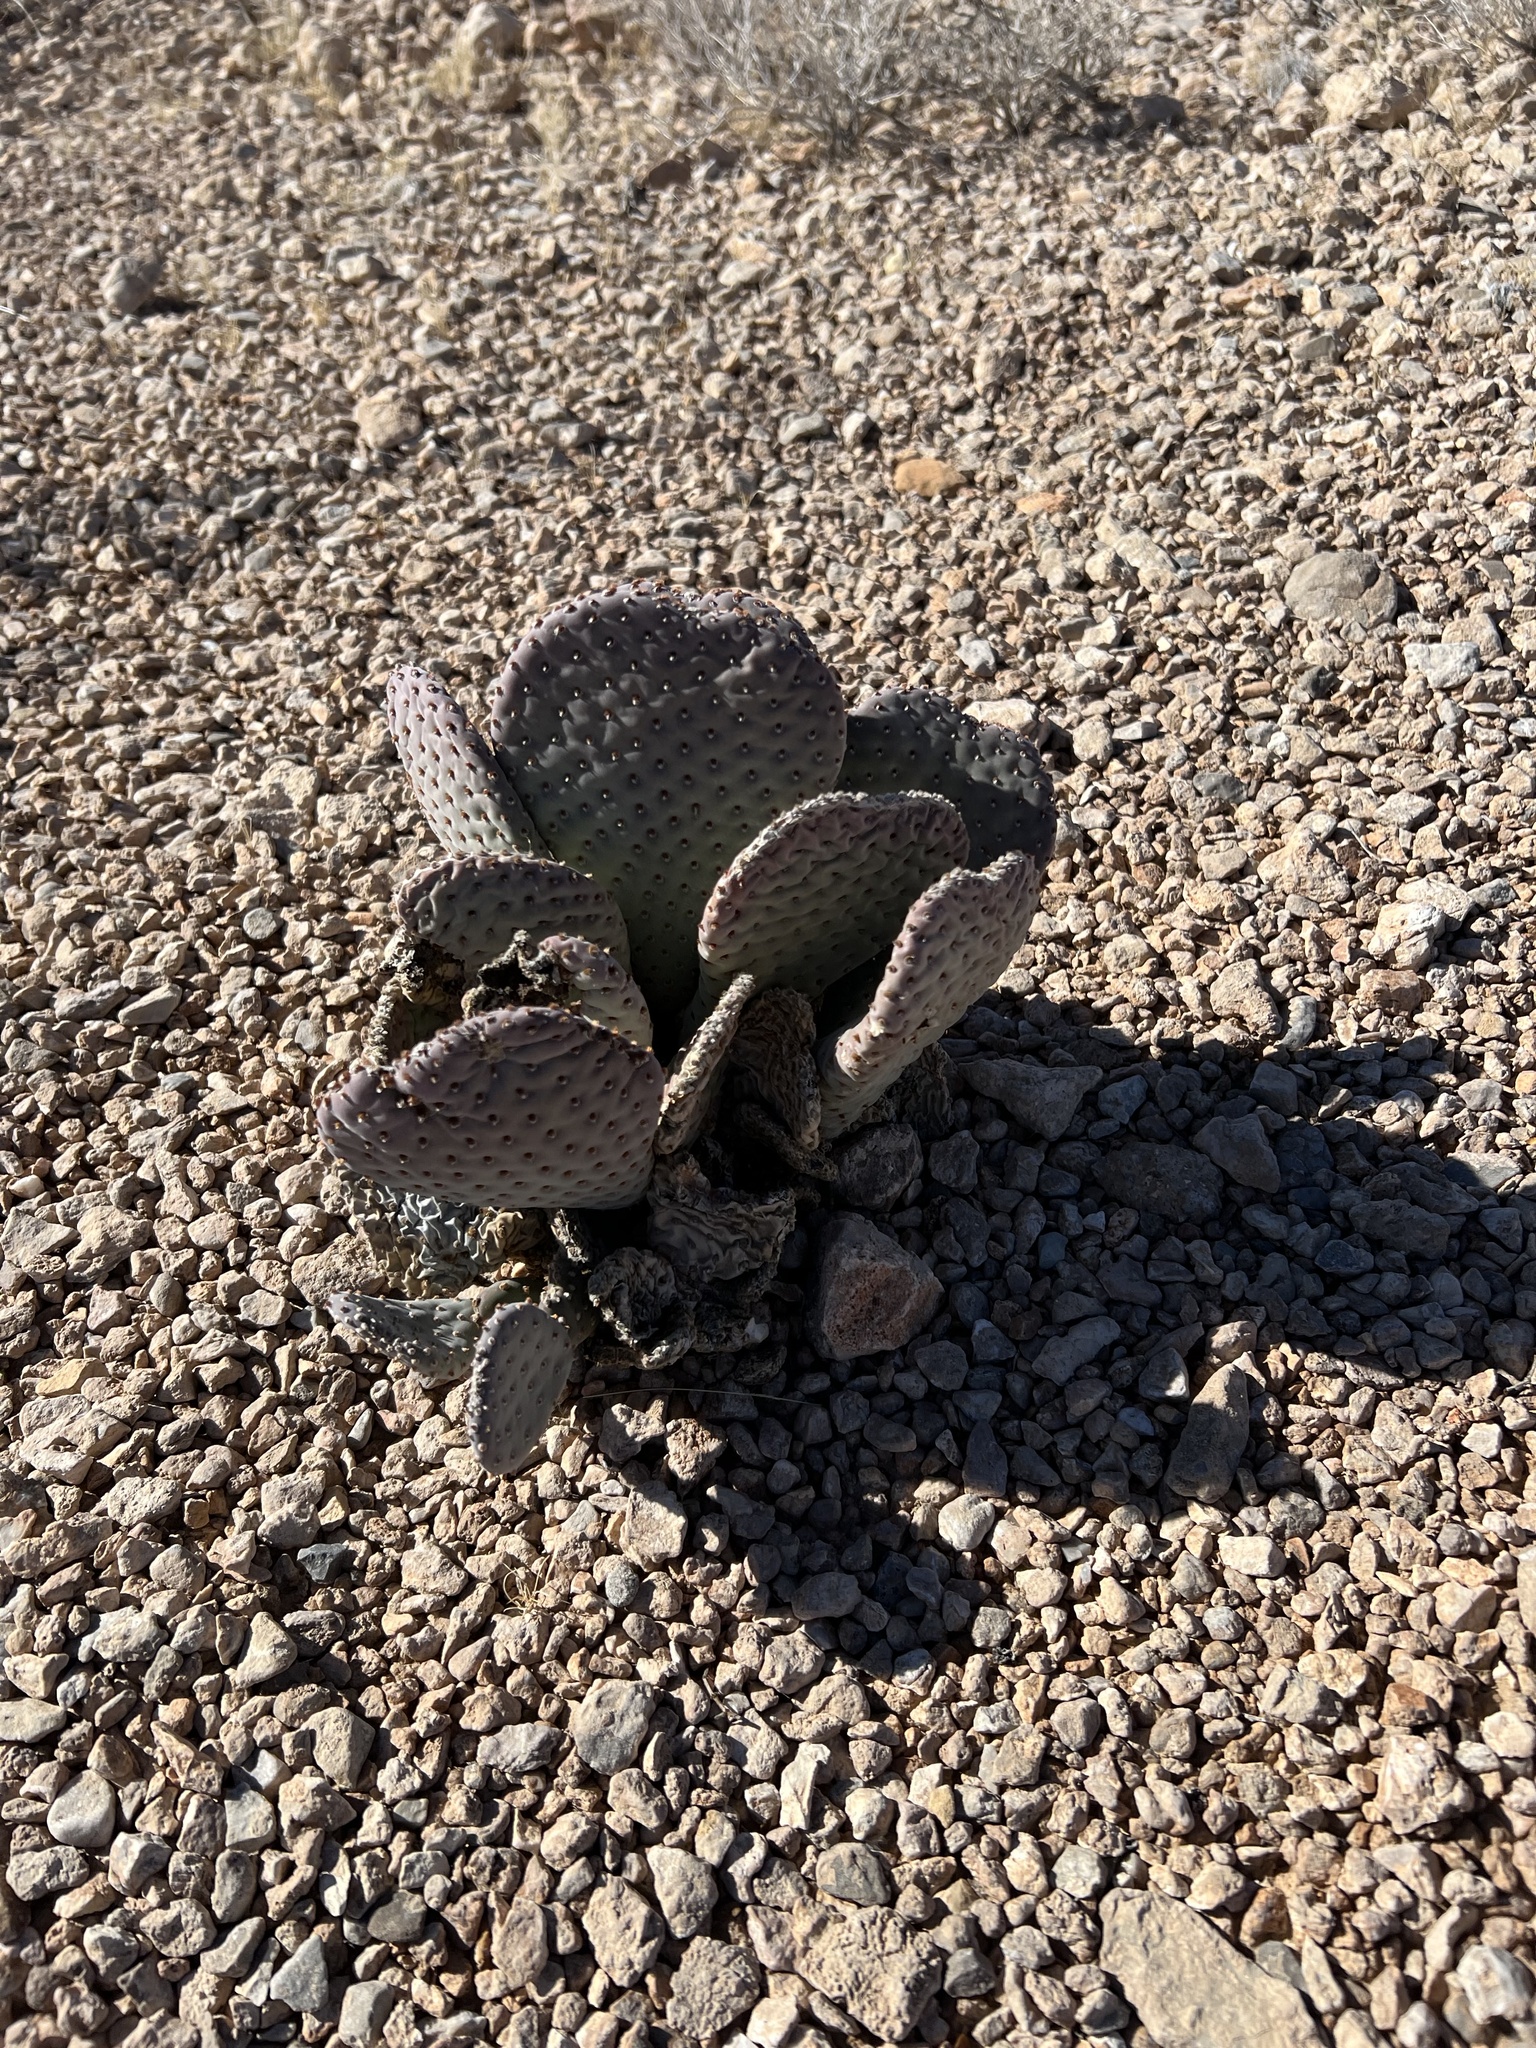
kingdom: Plantae
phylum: Tracheophyta
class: Magnoliopsida
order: Caryophyllales
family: Cactaceae
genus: Opuntia
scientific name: Opuntia basilaris
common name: Beavertail prickly-pear
